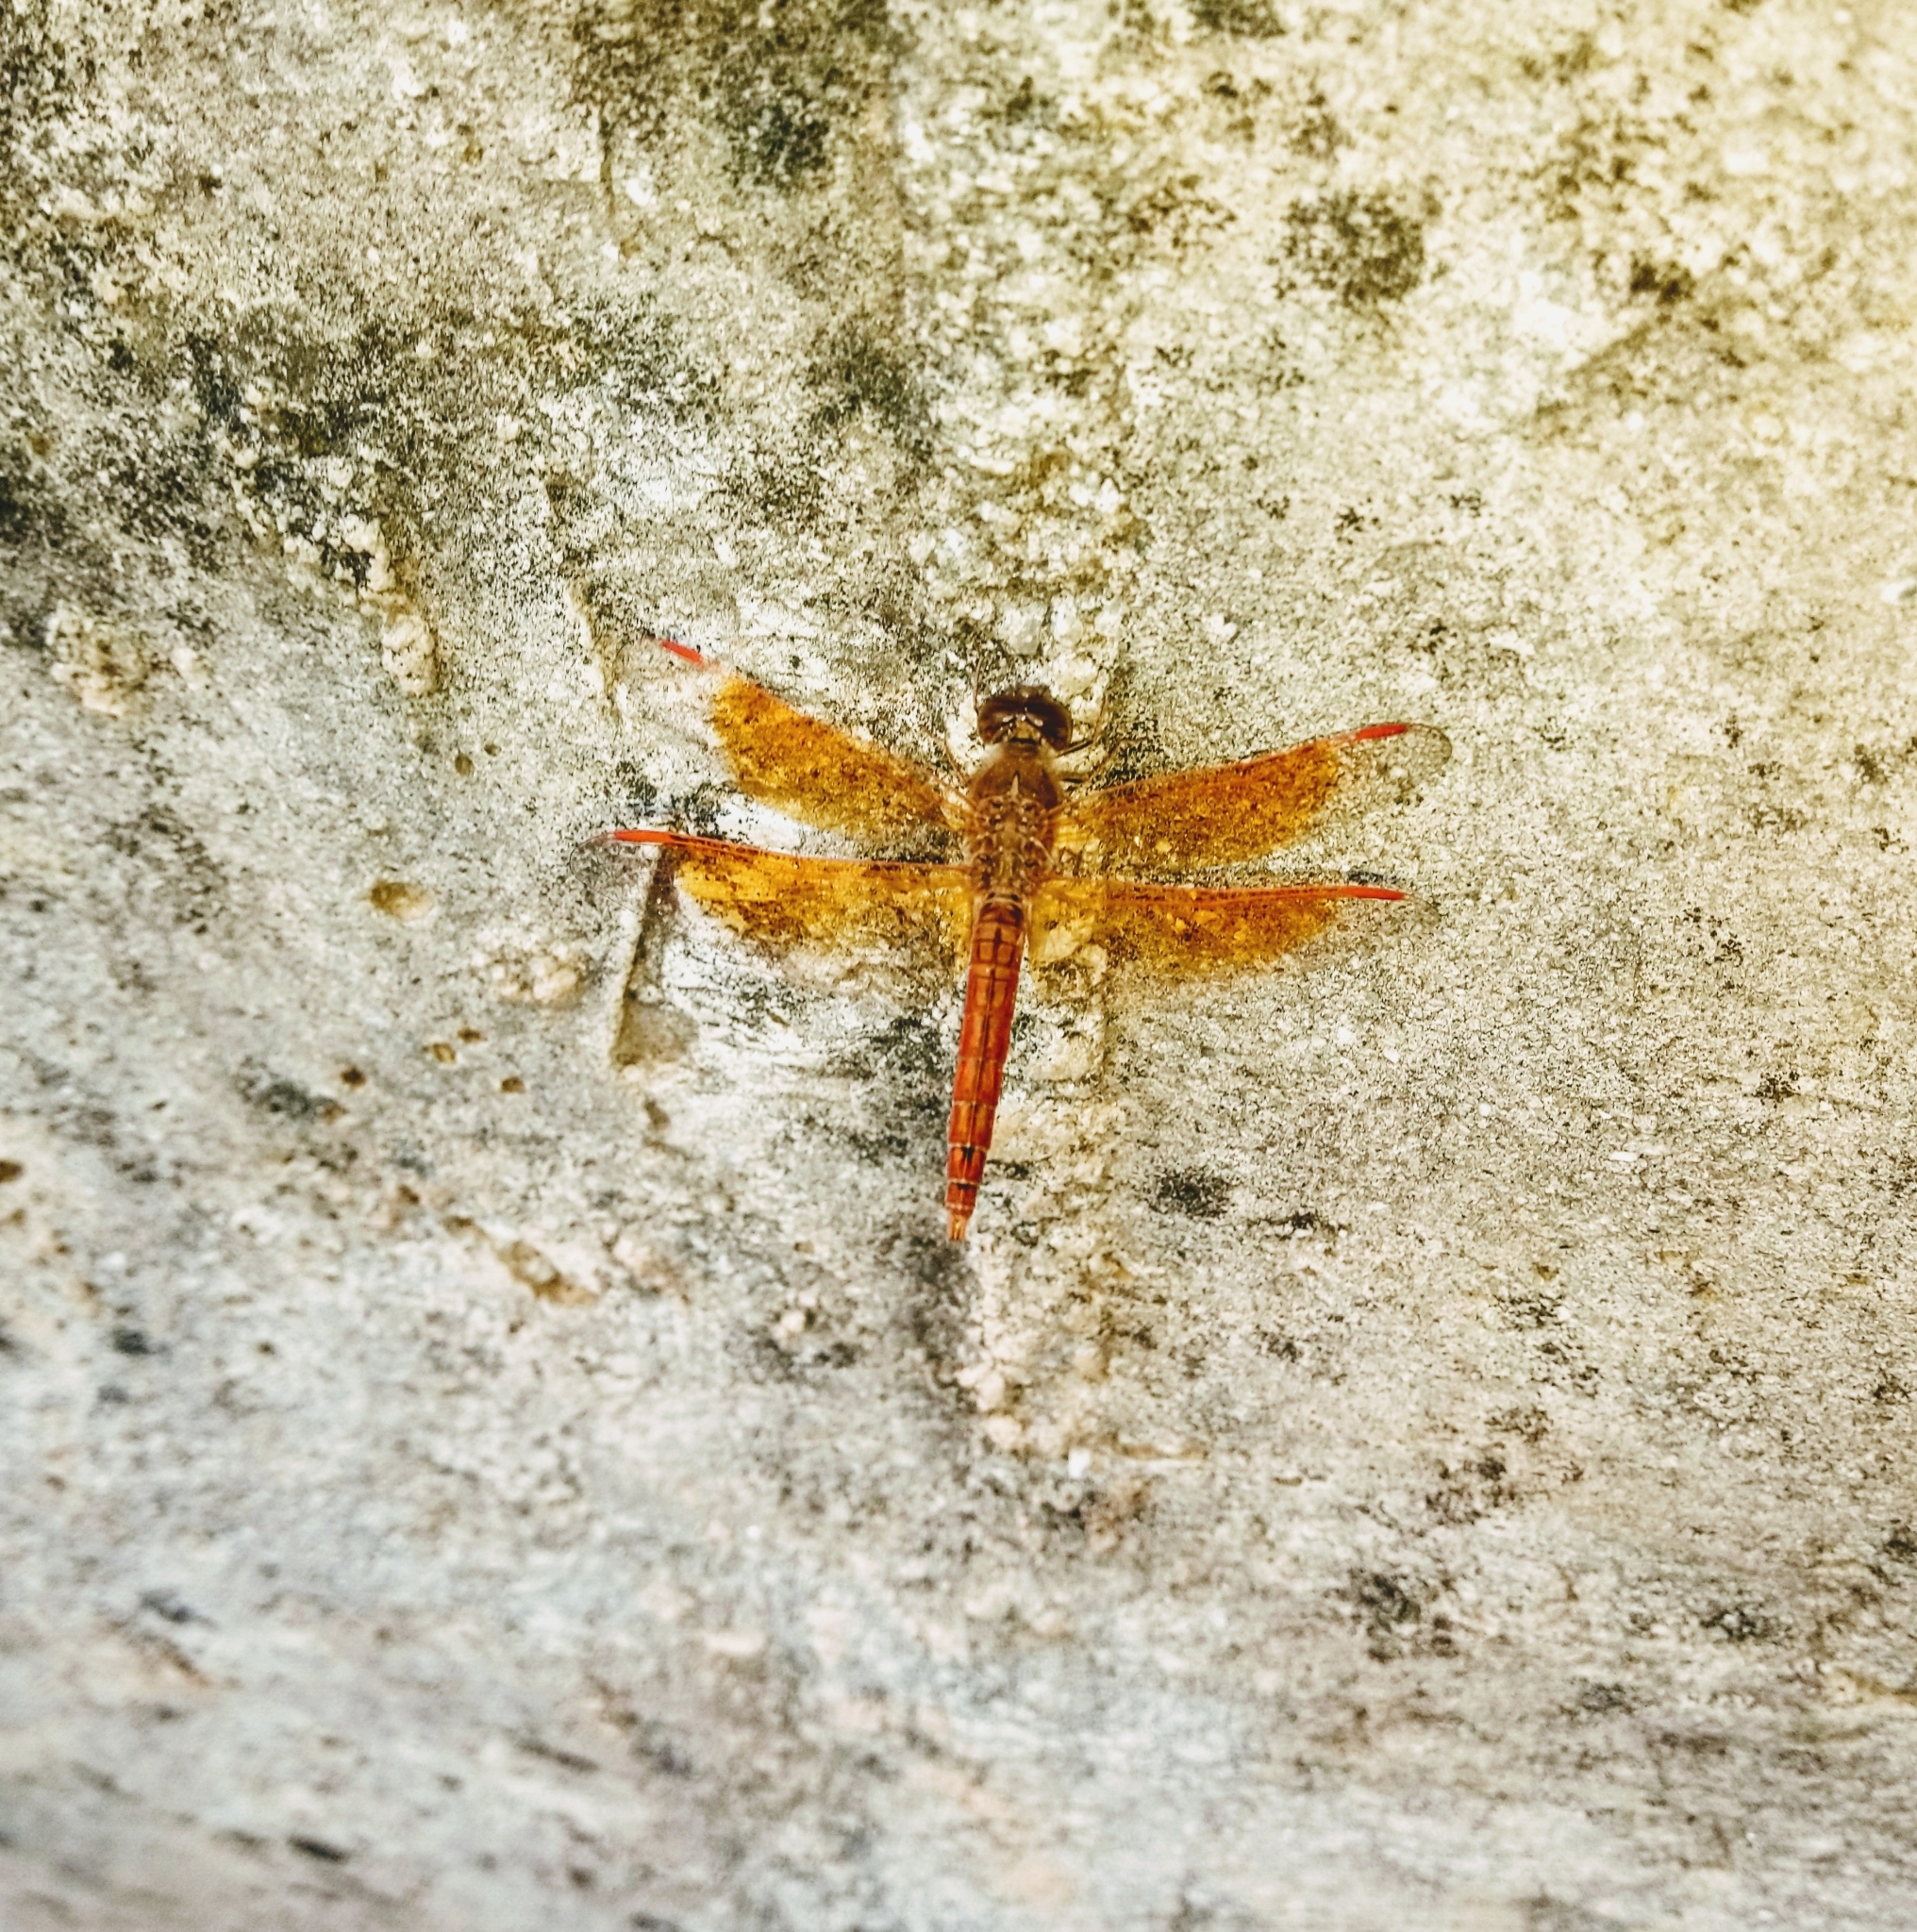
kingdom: Animalia
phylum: Arthropoda
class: Insecta
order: Odonata
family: Libellulidae
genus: Brachythemis
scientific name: Brachythemis contaminata
